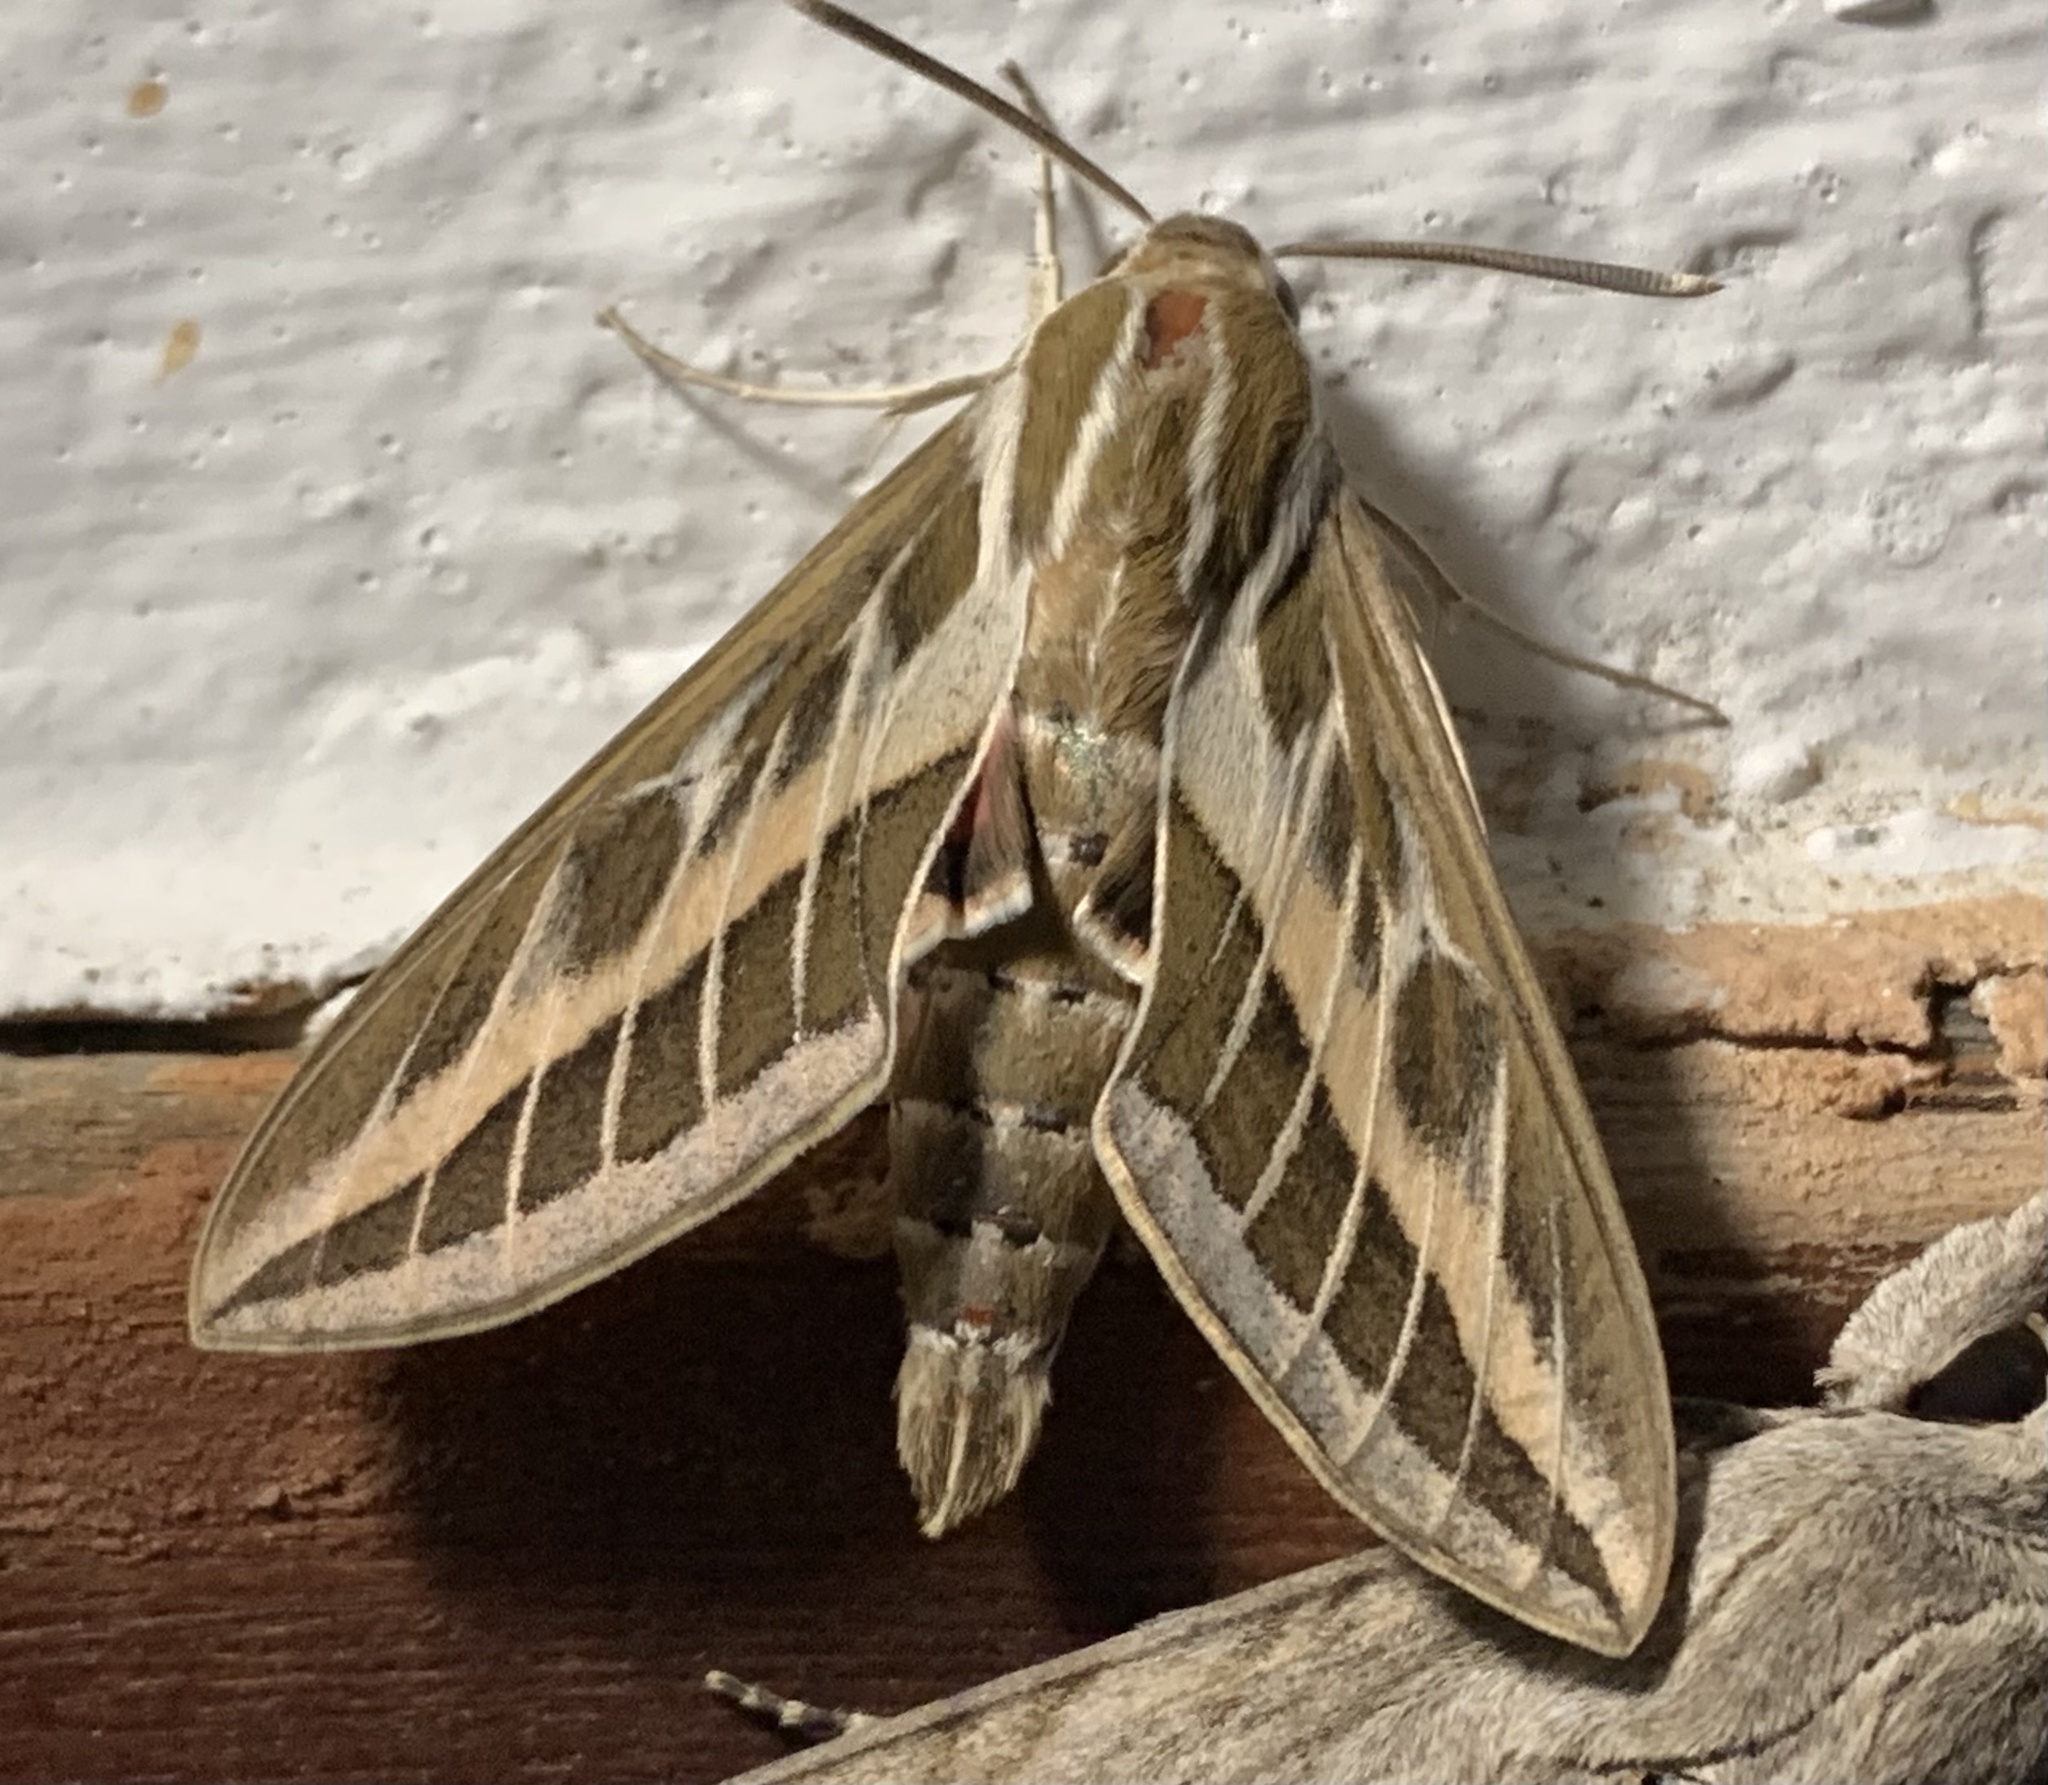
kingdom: Animalia
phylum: Arthropoda
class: Insecta
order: Lepidoptera
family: Sphingidae
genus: Hyles
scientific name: Hyles livornica
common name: Striped hawk-moth
